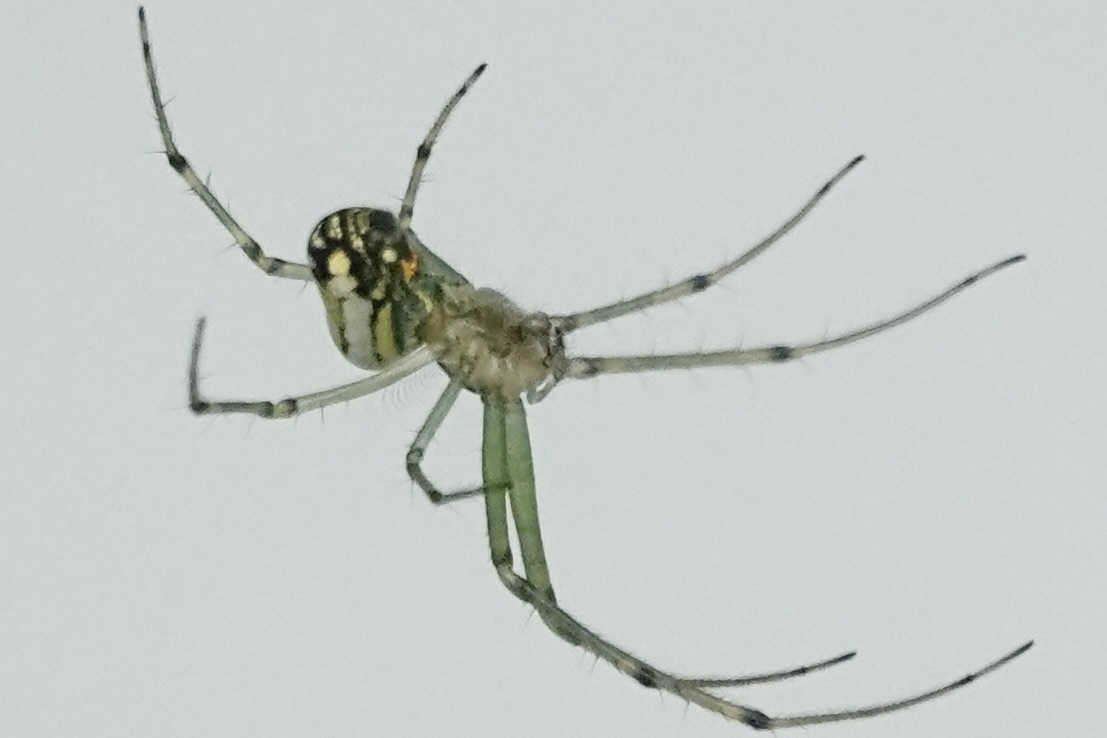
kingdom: Animalia
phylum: Arthropoda
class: Arachnida
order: Araneae
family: Tetragnathidae
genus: Leucauge
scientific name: Leucauge venusta
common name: Longjawed orb weavers
